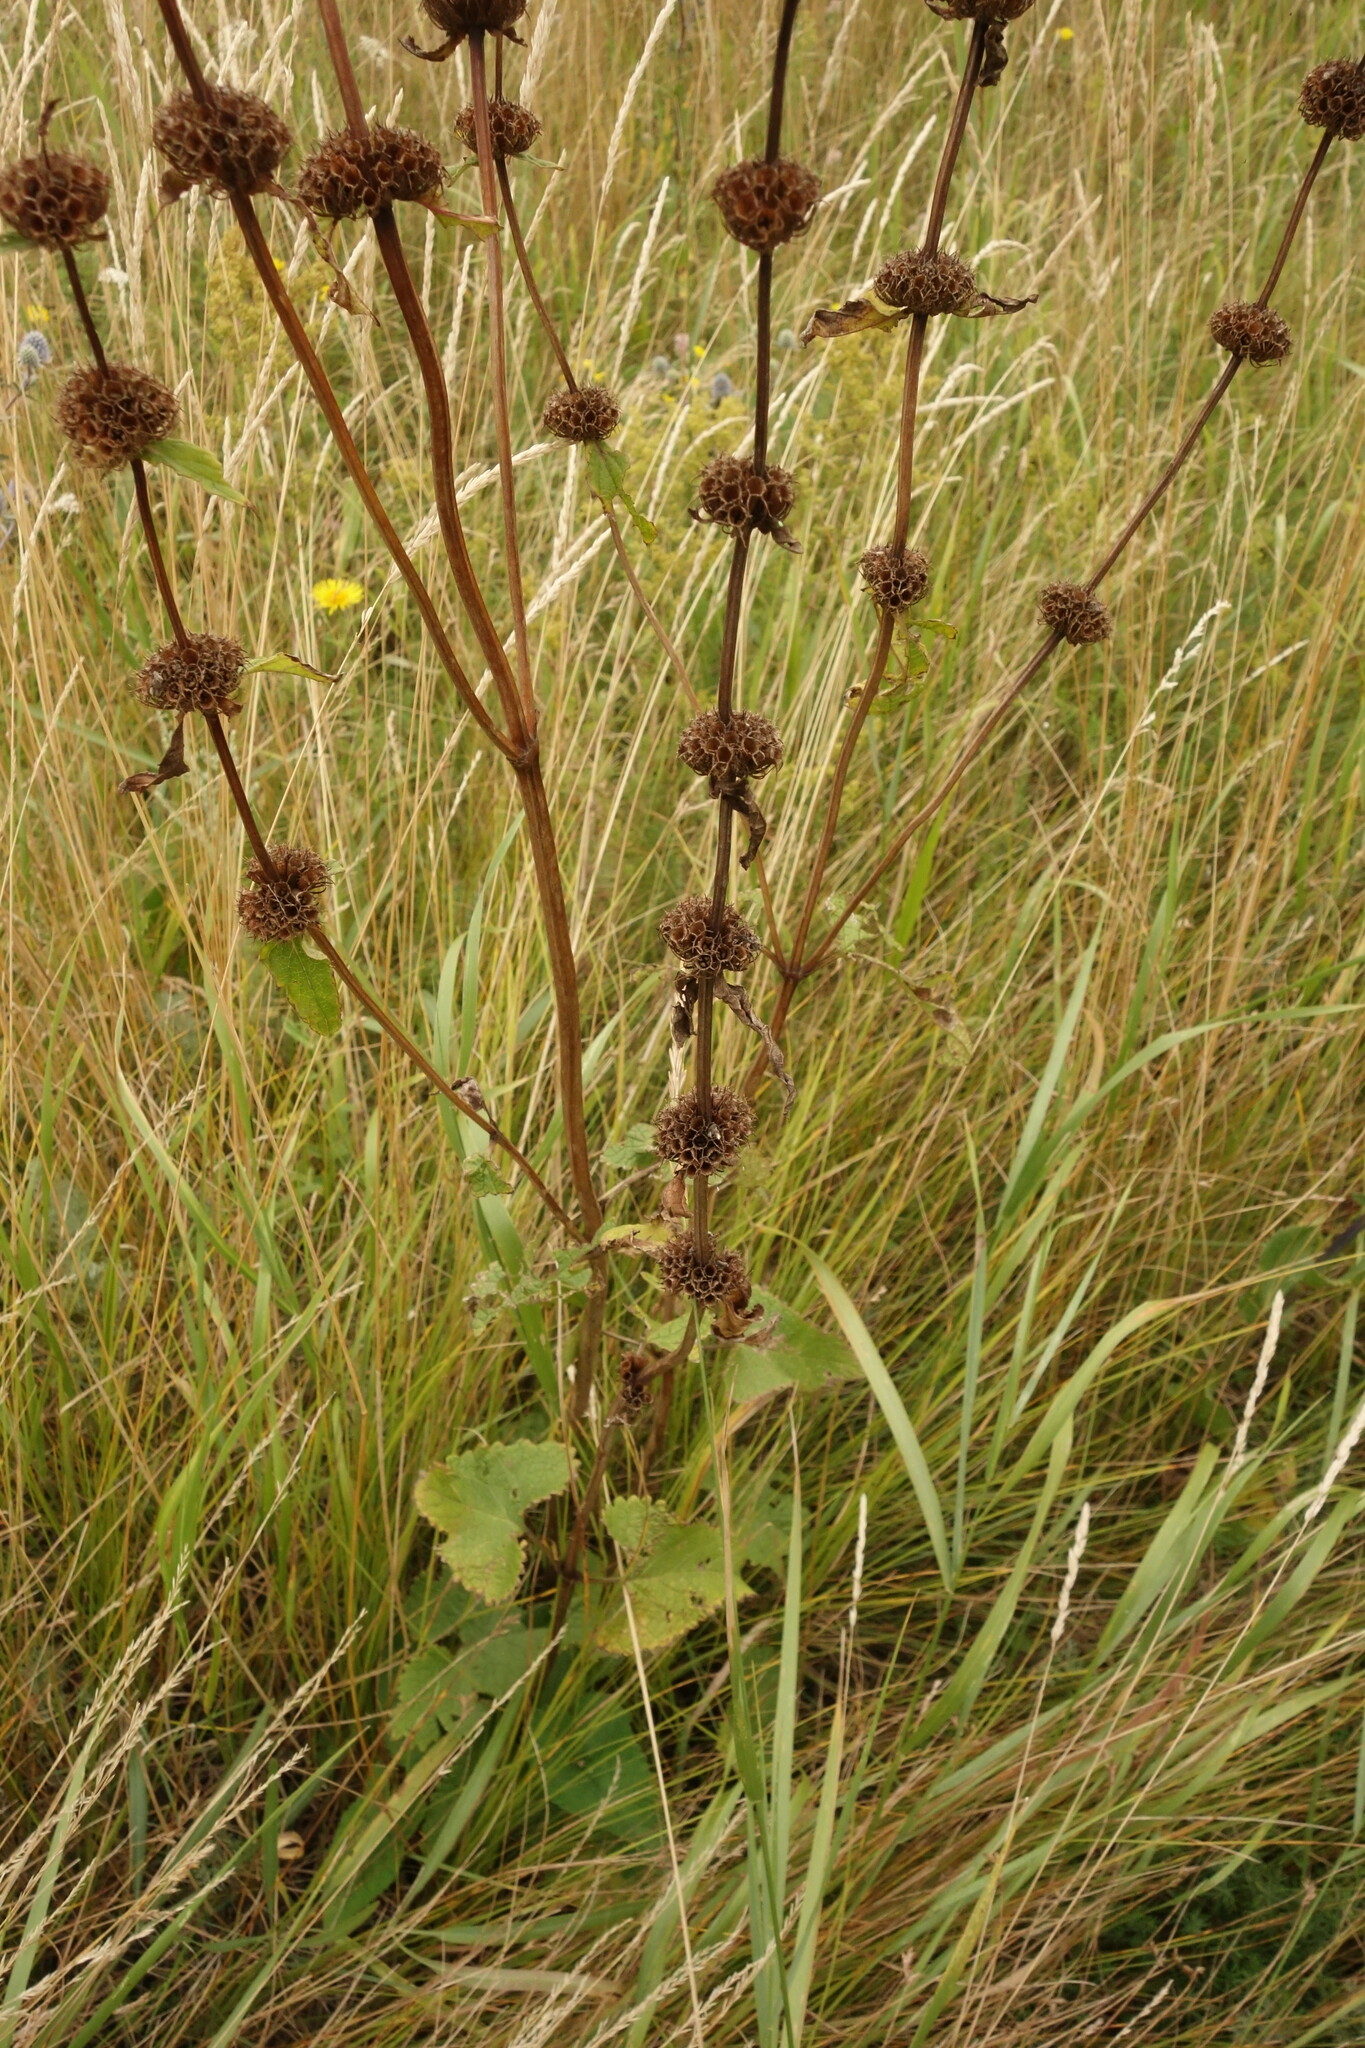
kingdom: Plantae
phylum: Tracheophyta
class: Magnoliopsida
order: Lamiales
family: Lamiaceae
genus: Phlomoides
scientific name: Phlomoides tuberosa
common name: Tuberous jerusalem sage
